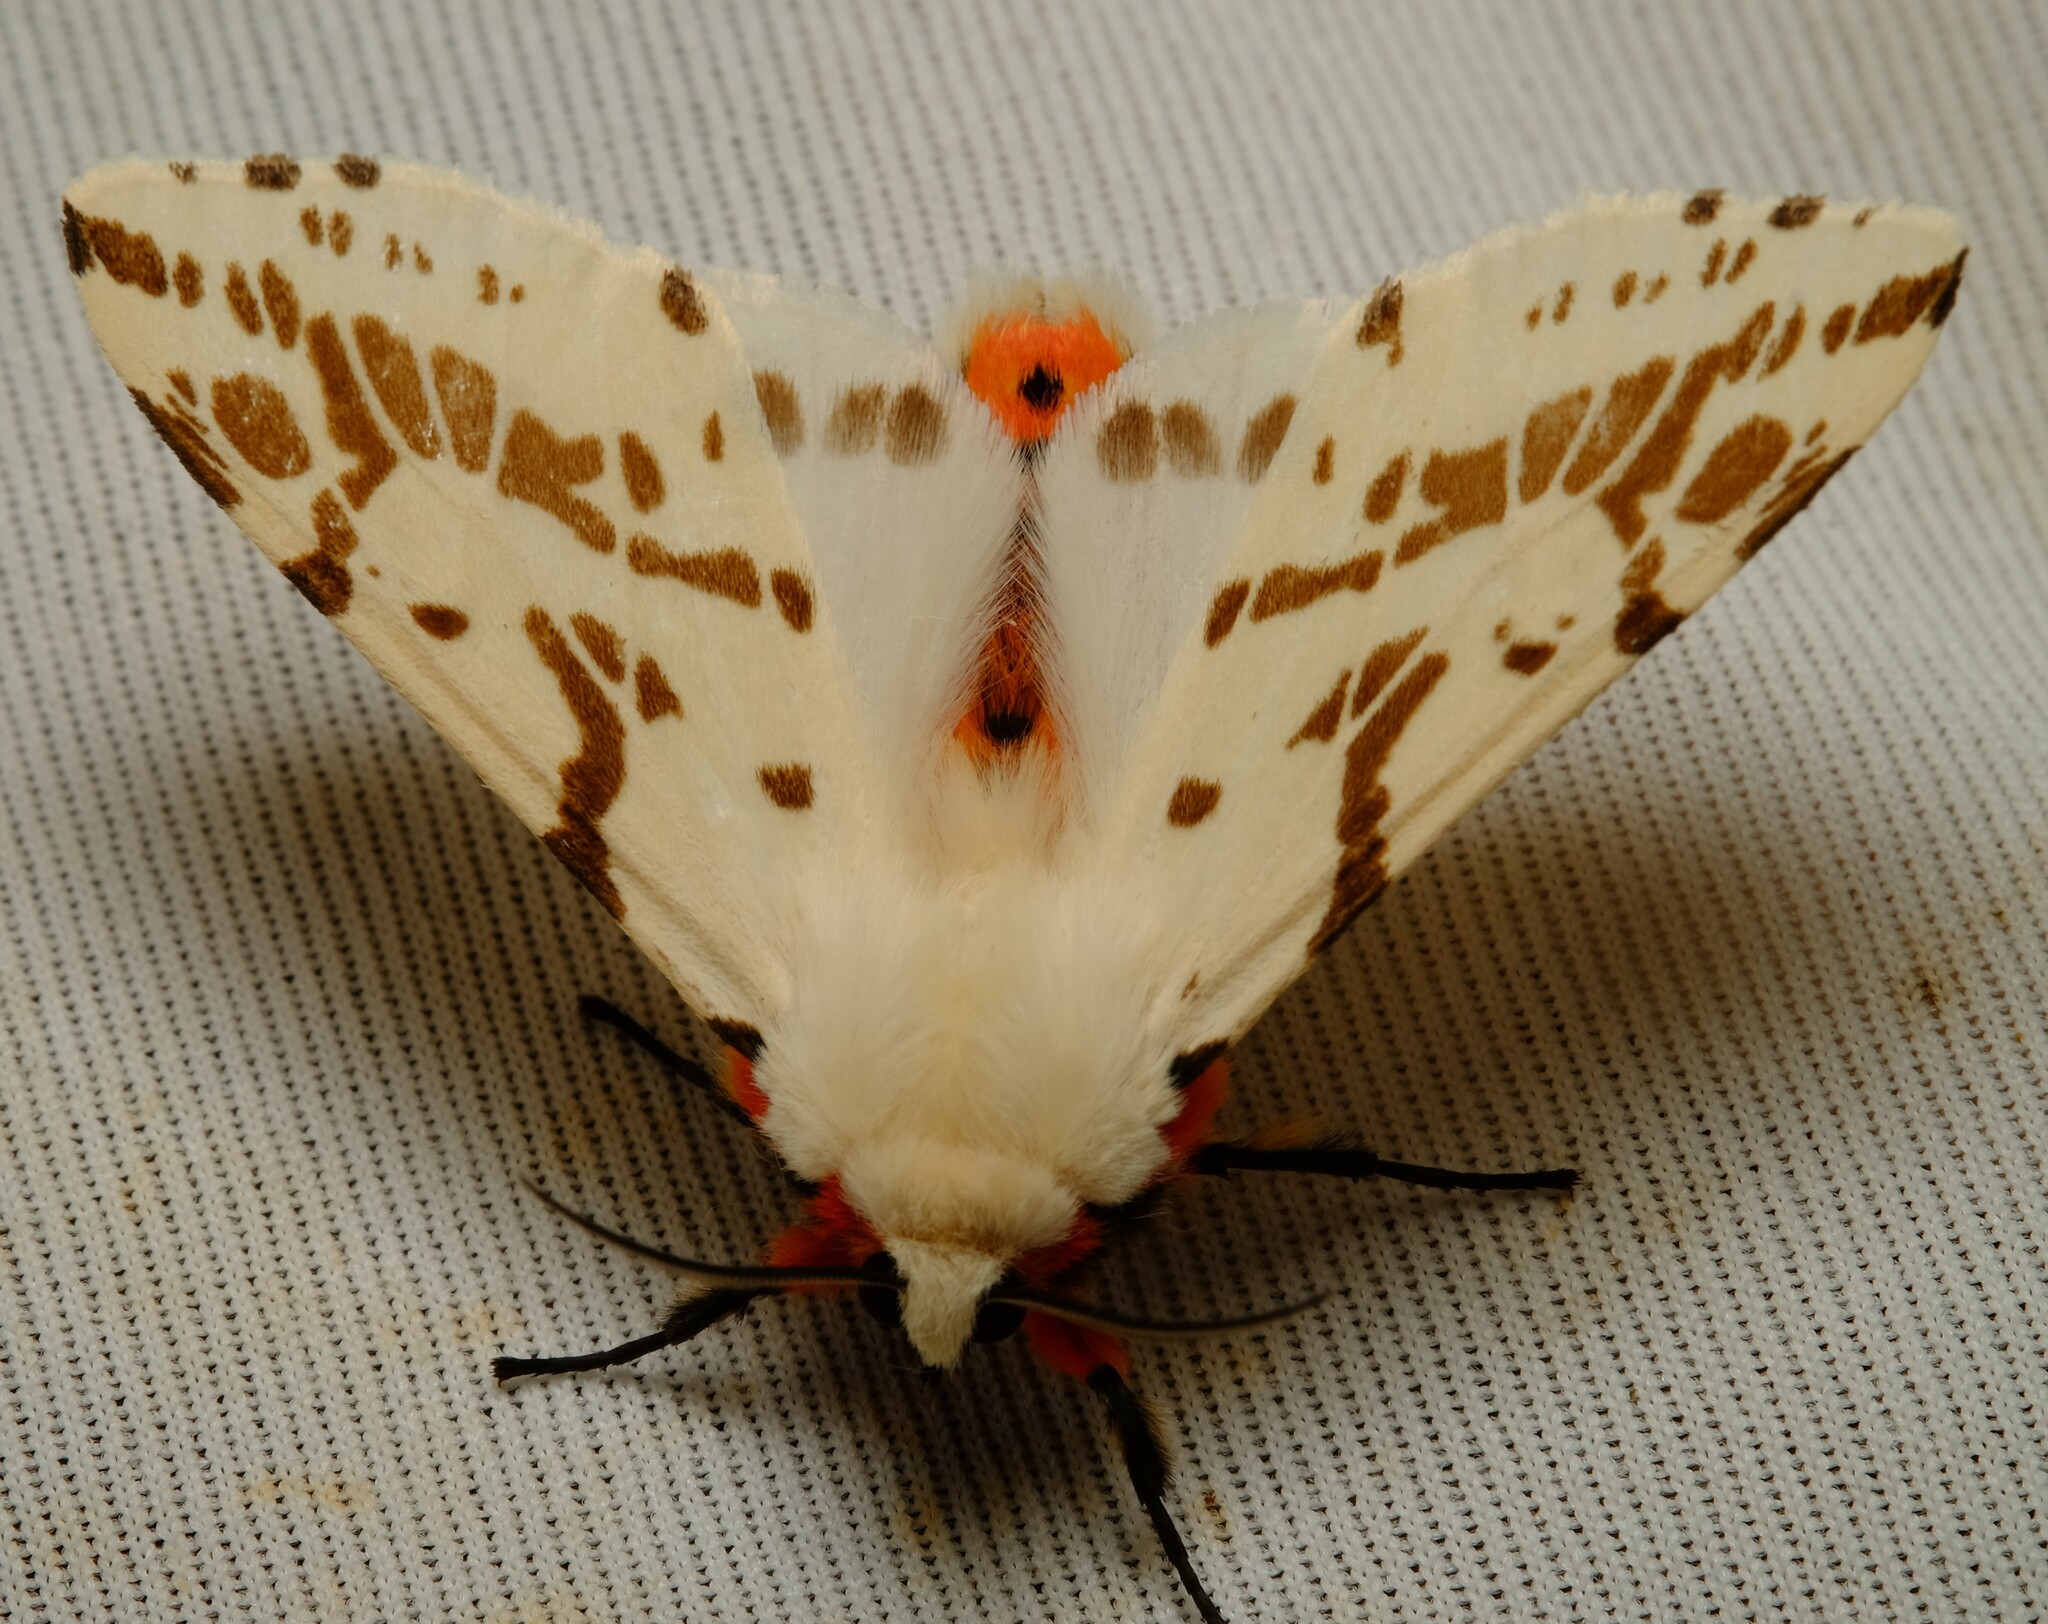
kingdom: Animalia
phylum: Arthropoda
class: Insecta
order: Lepidoptera
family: Erebidae
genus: Ardices
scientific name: Ardices canescens
